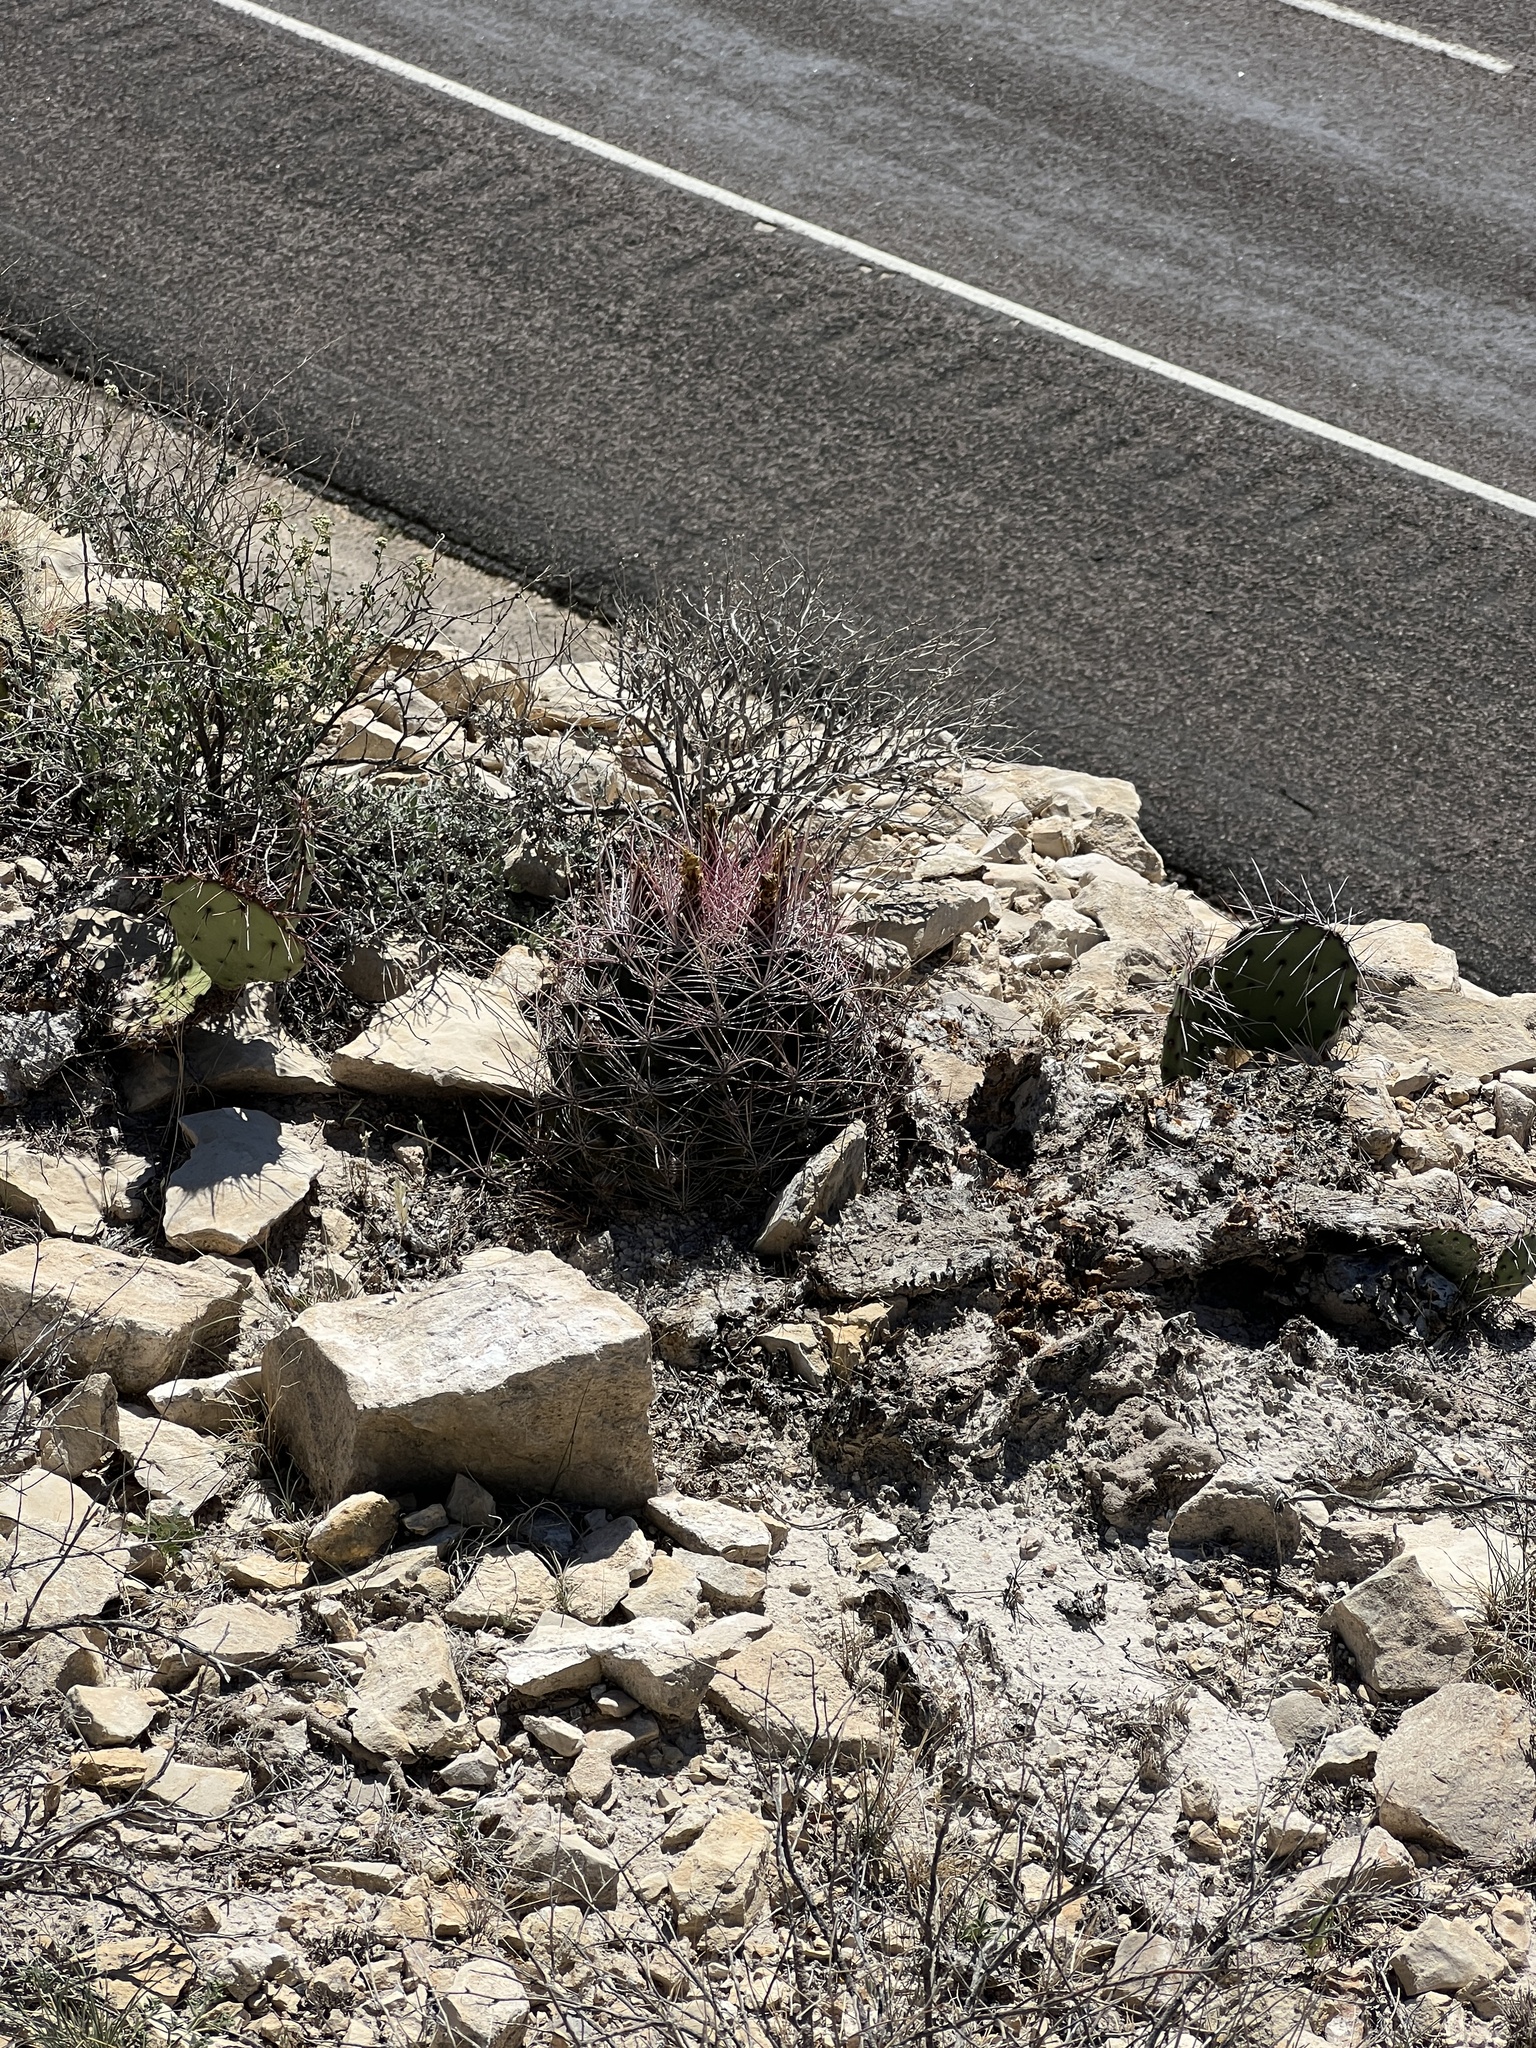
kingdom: Plantae
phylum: Tracheophyta
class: Magnoliopsida
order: Caryophyllales
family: Cactaceae
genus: Bisnaga
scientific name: Bisnaga hamatacantha
